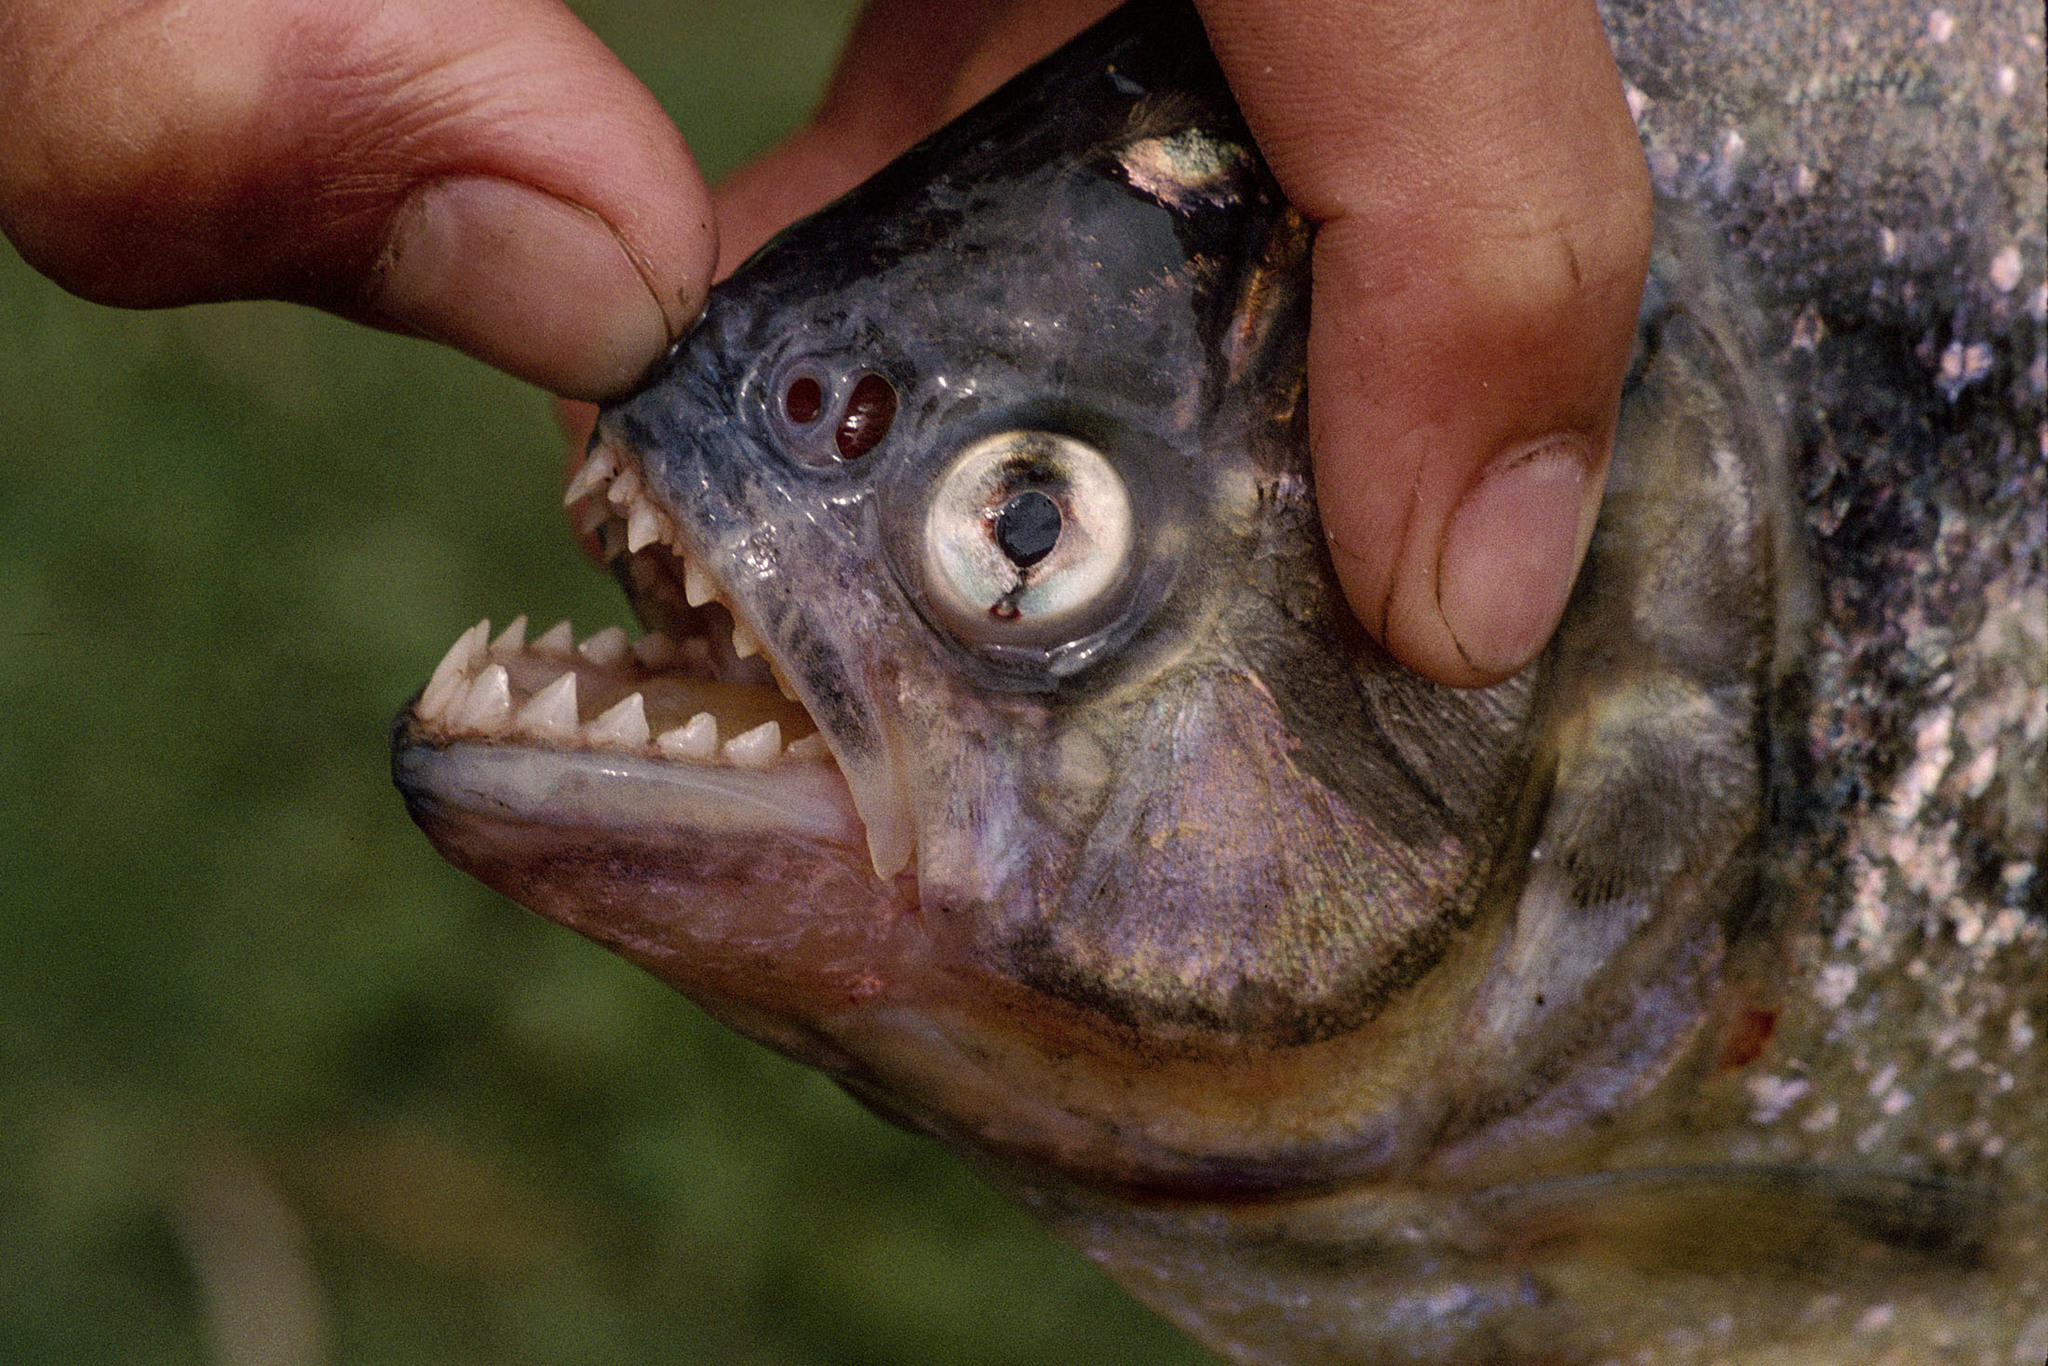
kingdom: Animalia
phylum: Chordata
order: Characiformes
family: Serrasalmidae
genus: Serrasalmus
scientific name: Serrasalmus maculatus
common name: Speckled piranha
